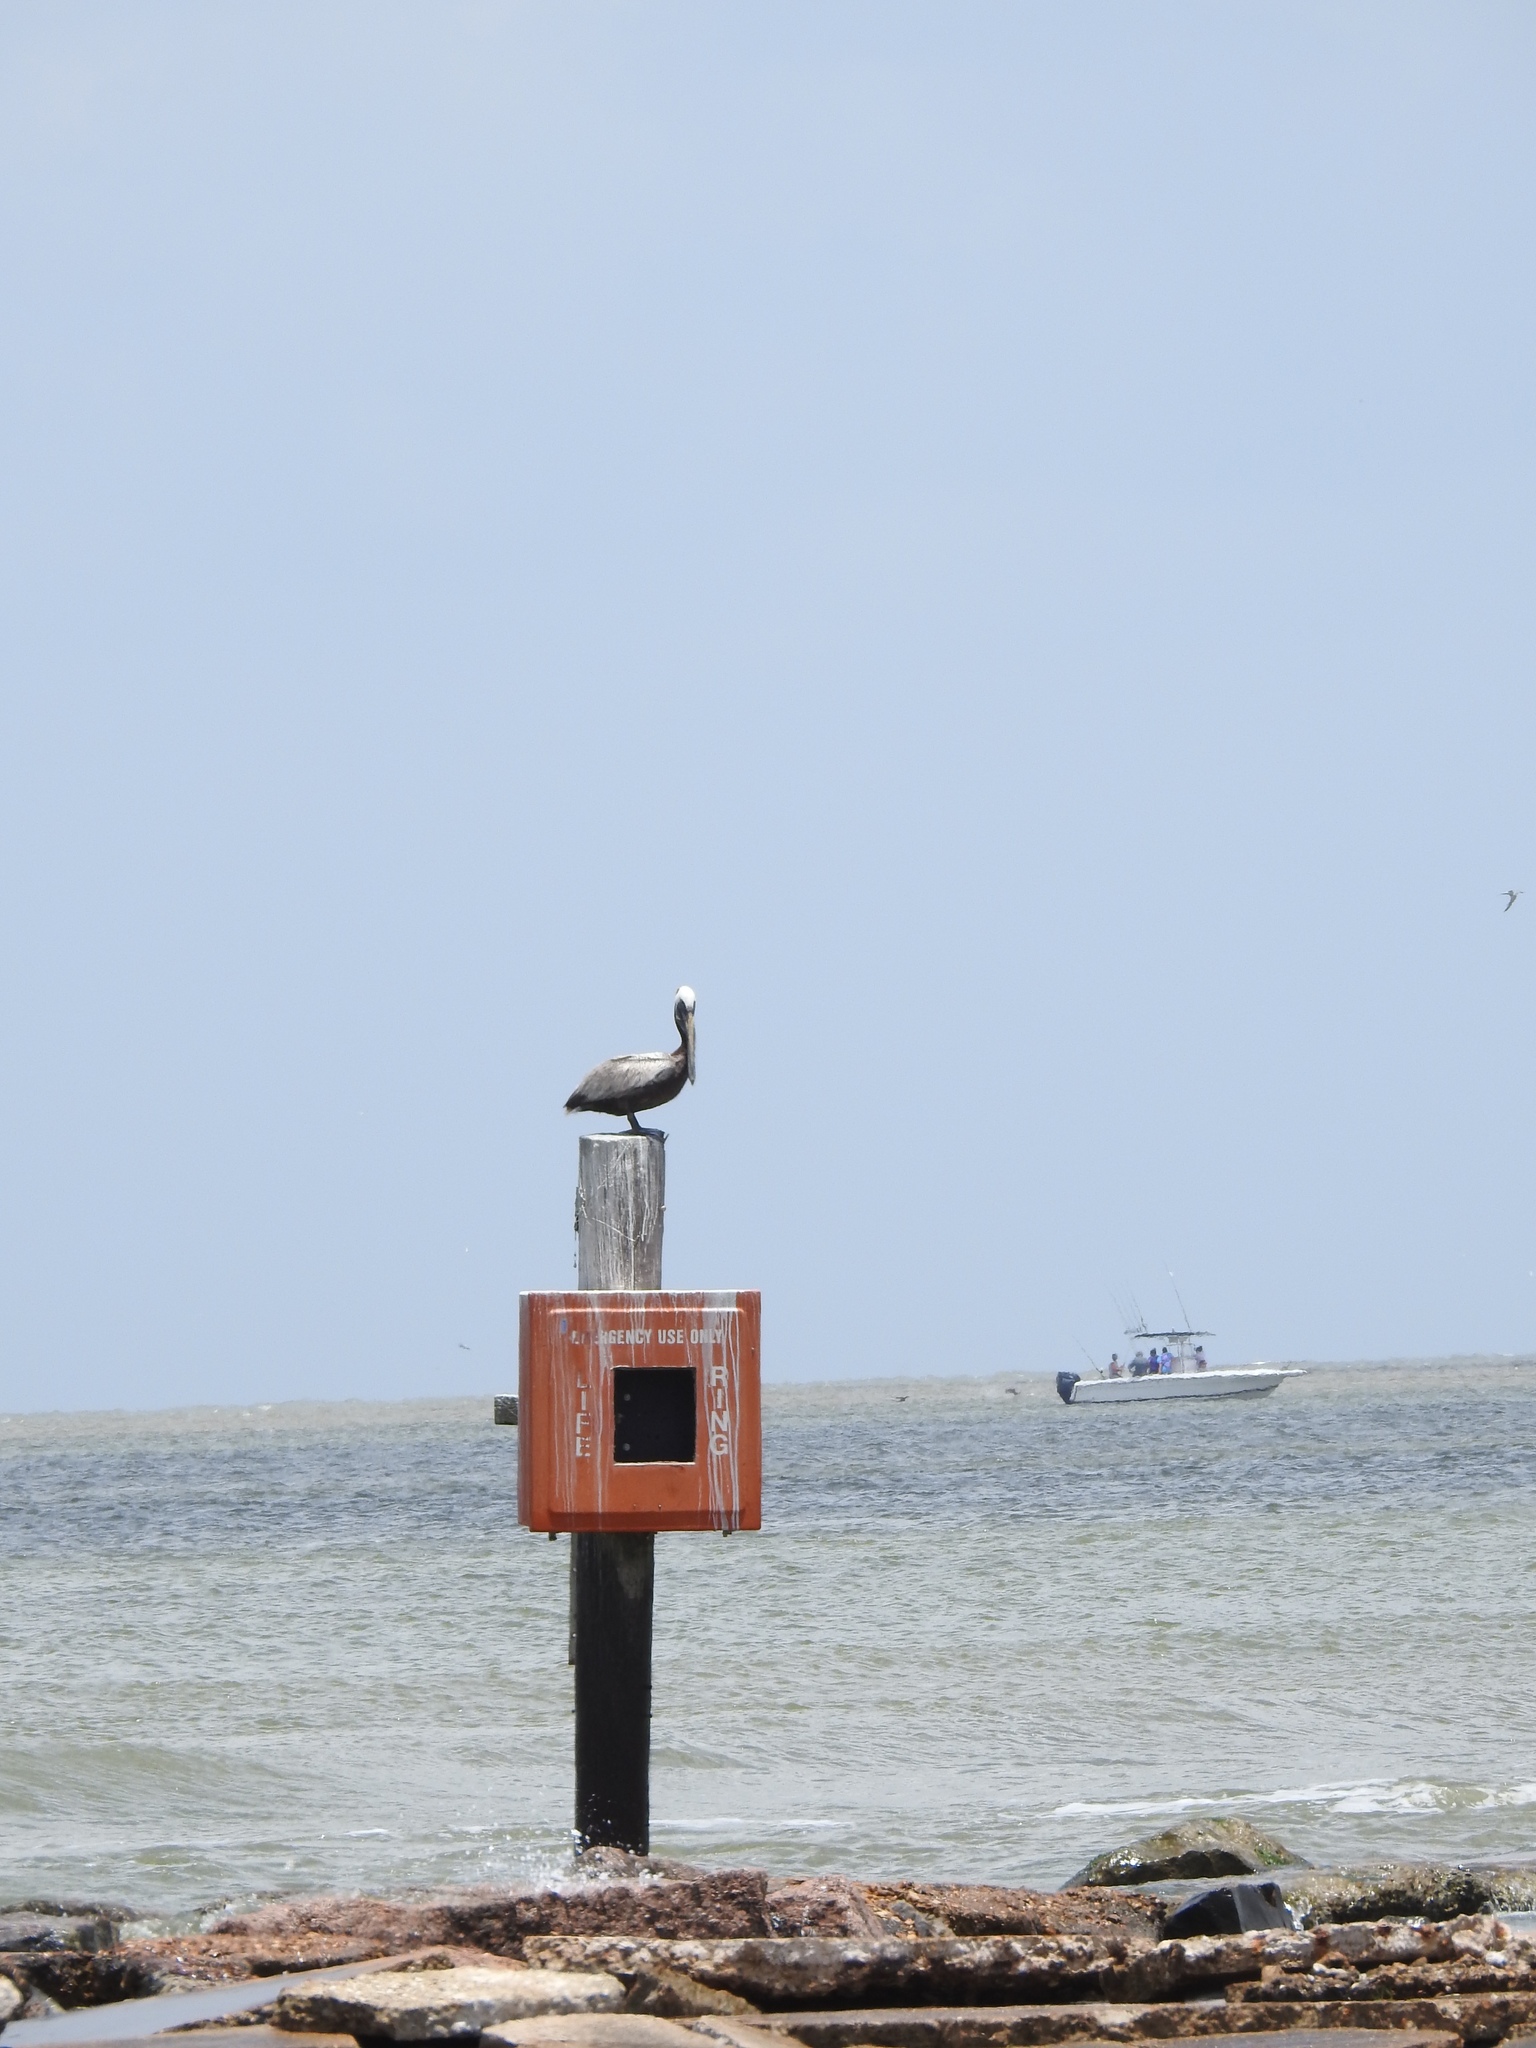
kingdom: Animalia
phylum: Chordata
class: Aves
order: Pelecaniformes
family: Pelecanidae
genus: Pelecanus
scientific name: Pelecanus occidentalis
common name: Brown pelican
